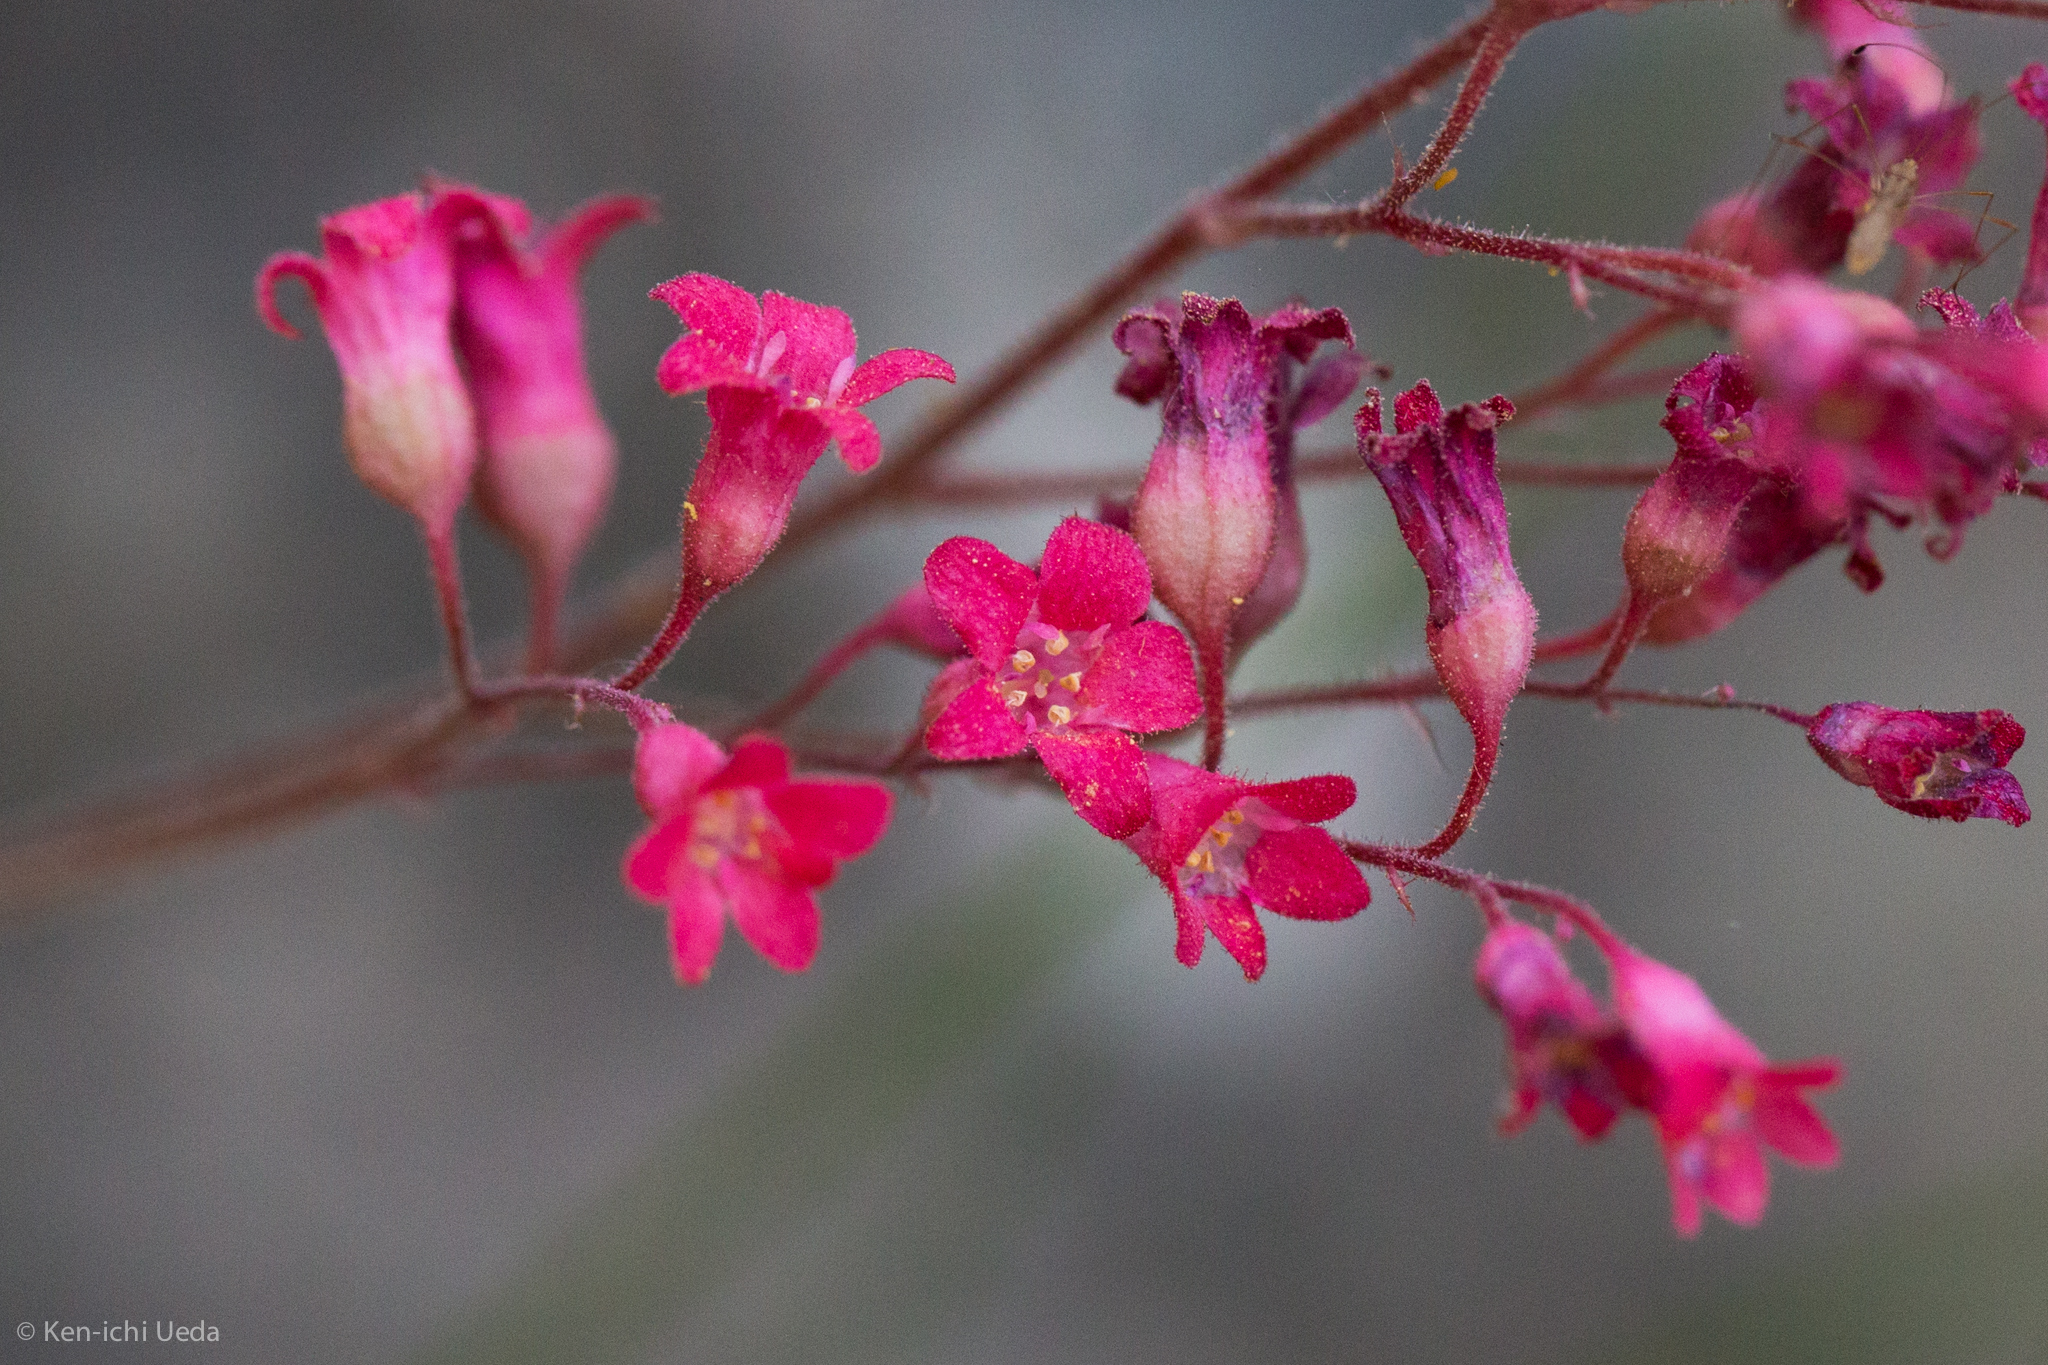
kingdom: Plantae
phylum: Tracheophyta
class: Magnoliopsida
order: Saxifragales
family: Saxifragaceae
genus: Heuchera
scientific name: Heuchera sanguinea
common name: Coralbells
